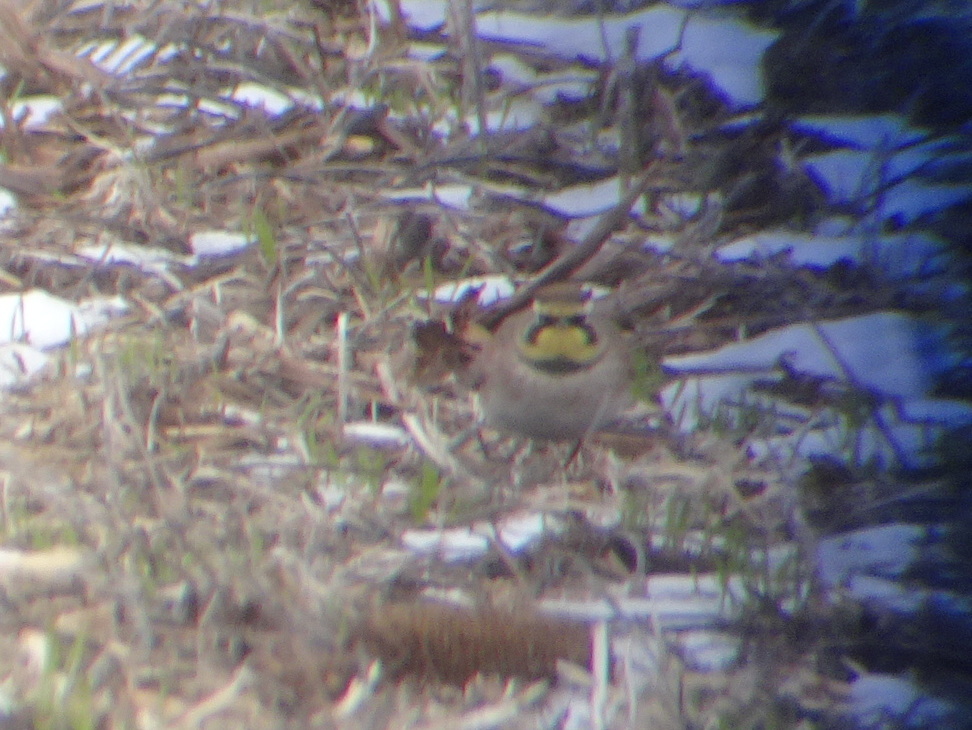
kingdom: Animalia
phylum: Chordata
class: Aves
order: Passeriformes
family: Alaudidae
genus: Eremophila
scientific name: Eremophila alpestris
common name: Horned lark
